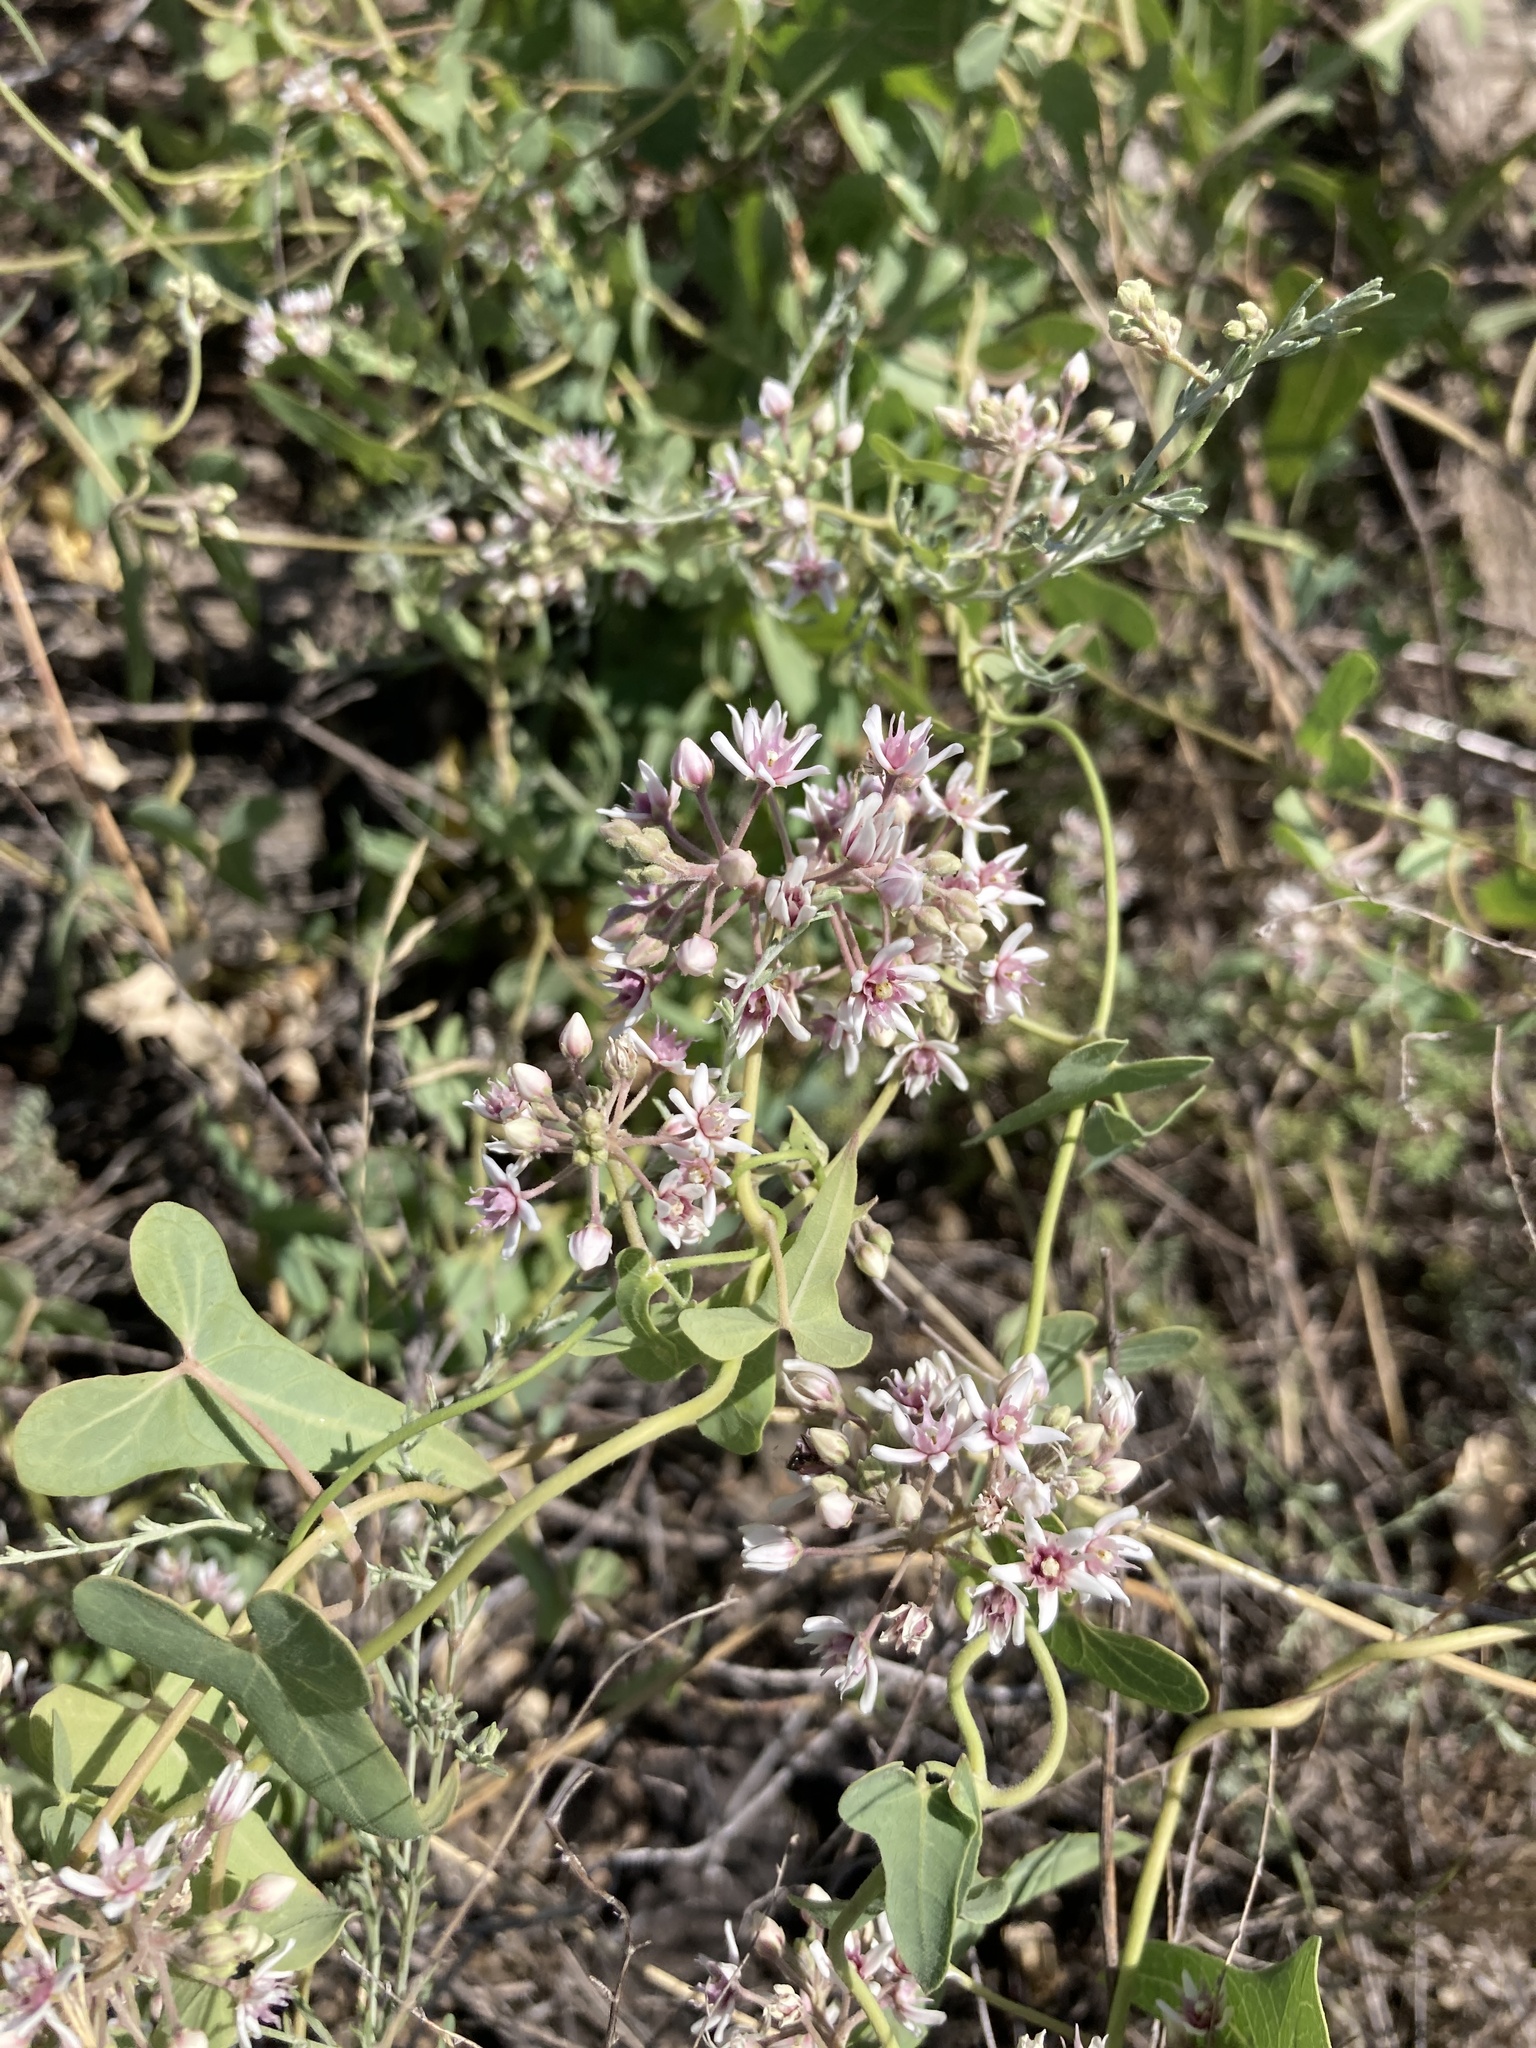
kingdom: Plantae
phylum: Tracheophyta
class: Magnoliopsida
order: Gentianales
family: Apocynaceae
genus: Cynanchum
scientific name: Cynanchum acutum
